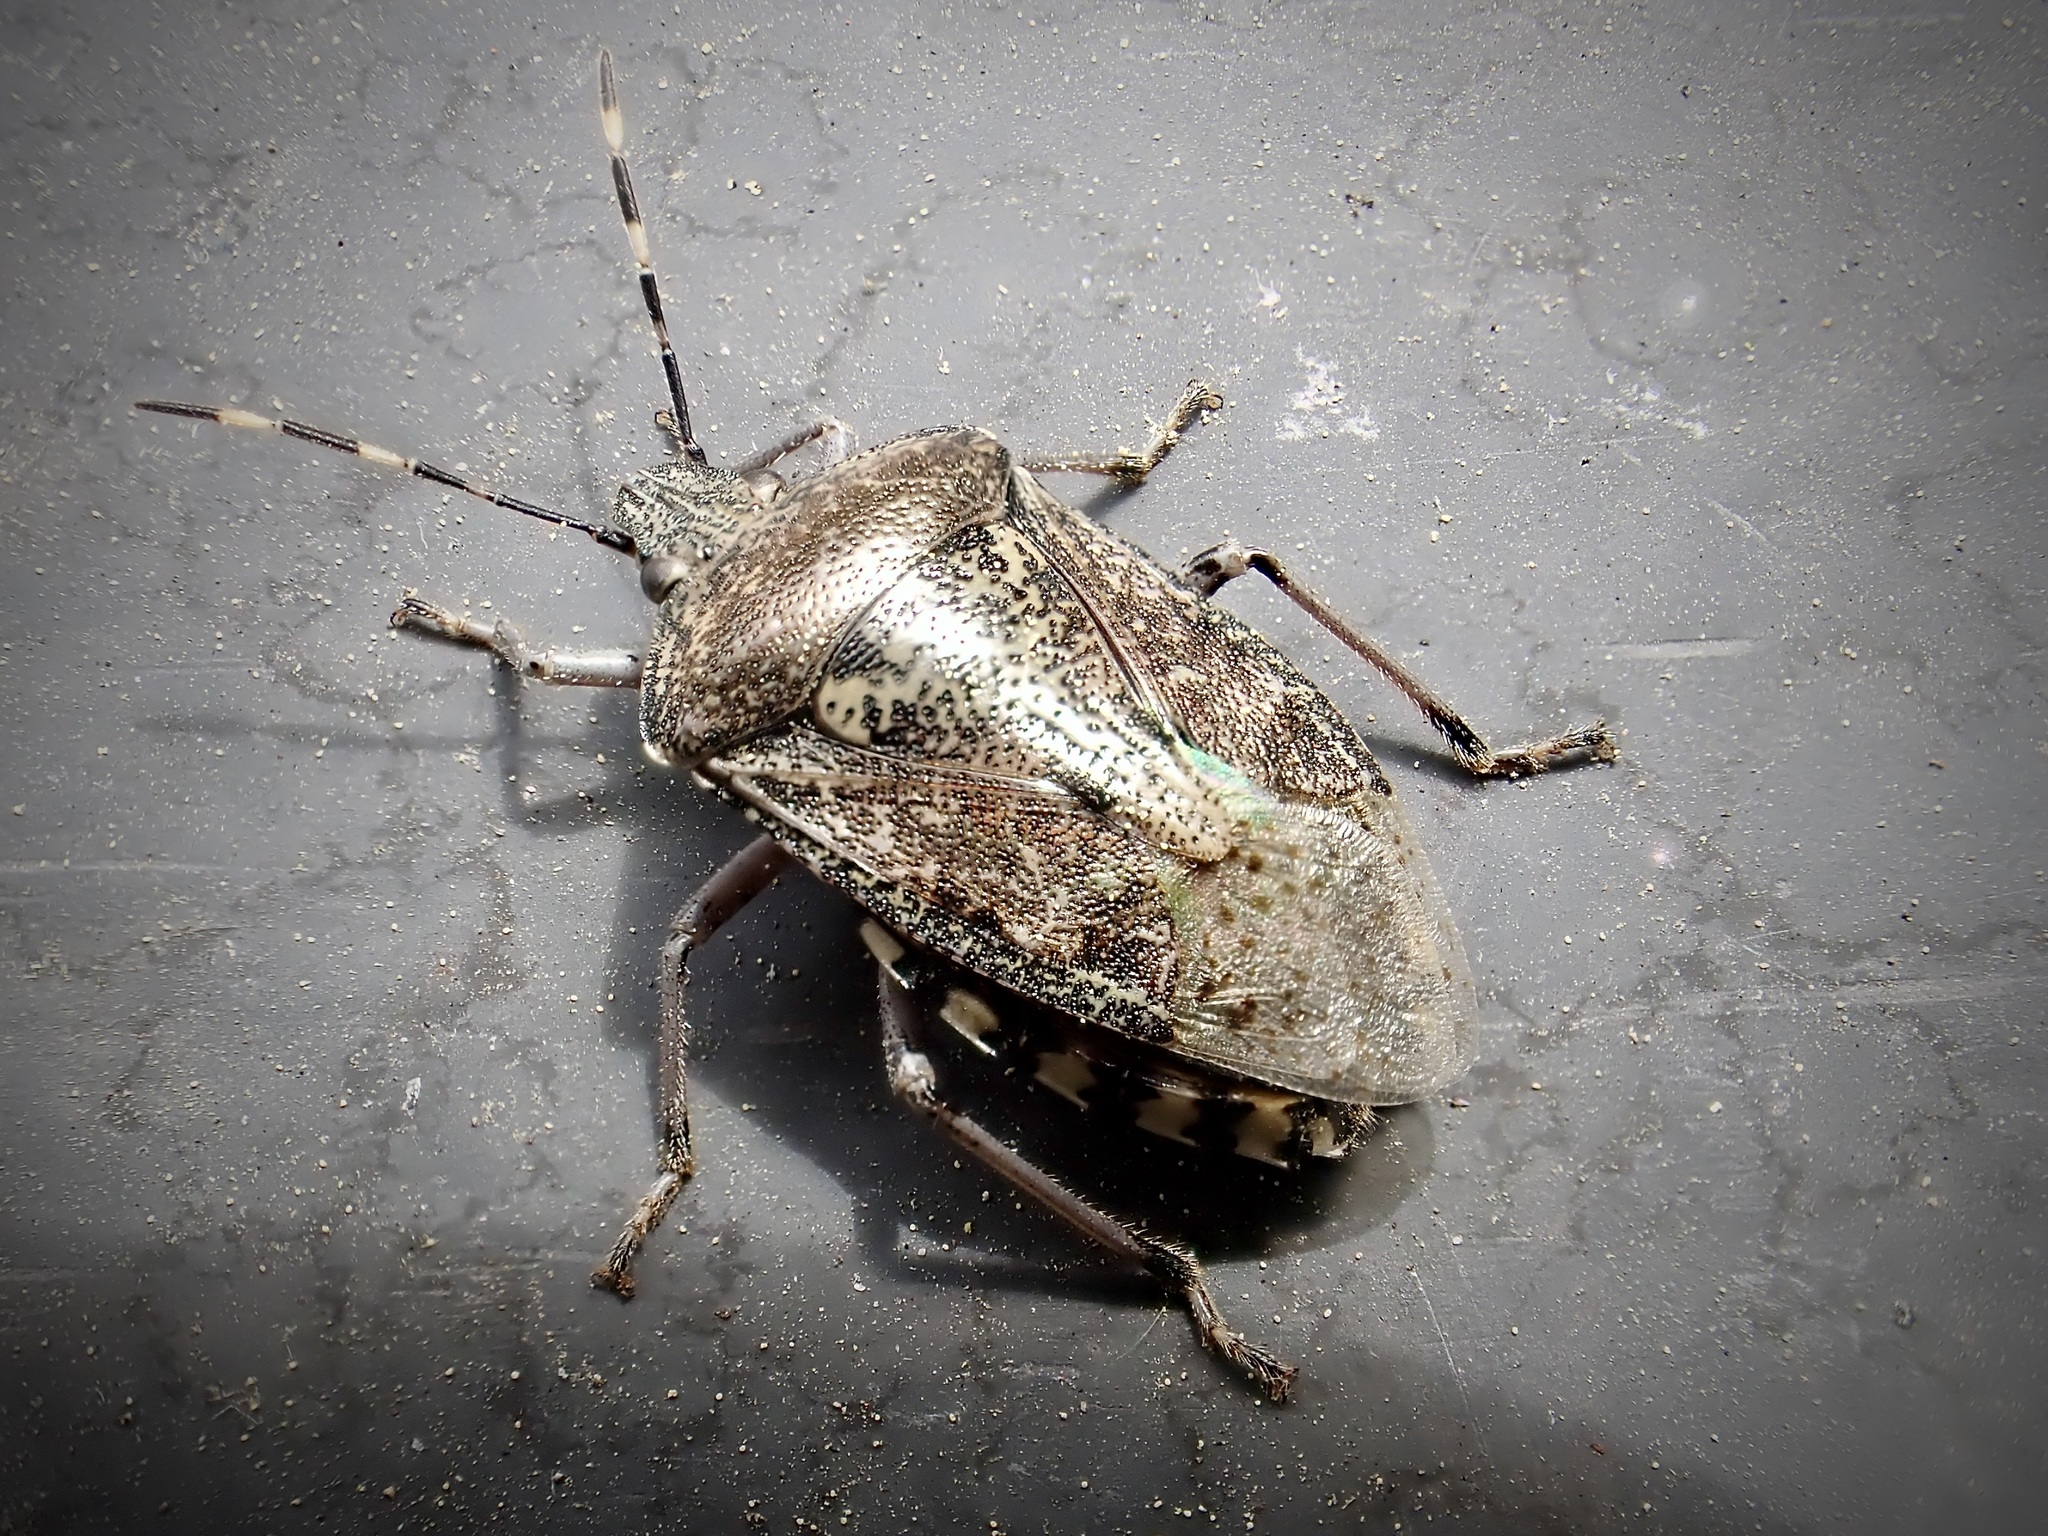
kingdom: Animalia
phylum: Arthropoda
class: Insecta
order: Hemiptera
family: Pentatomidae
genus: Rhaphigaster
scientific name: Rhaphigaster nebulosa
